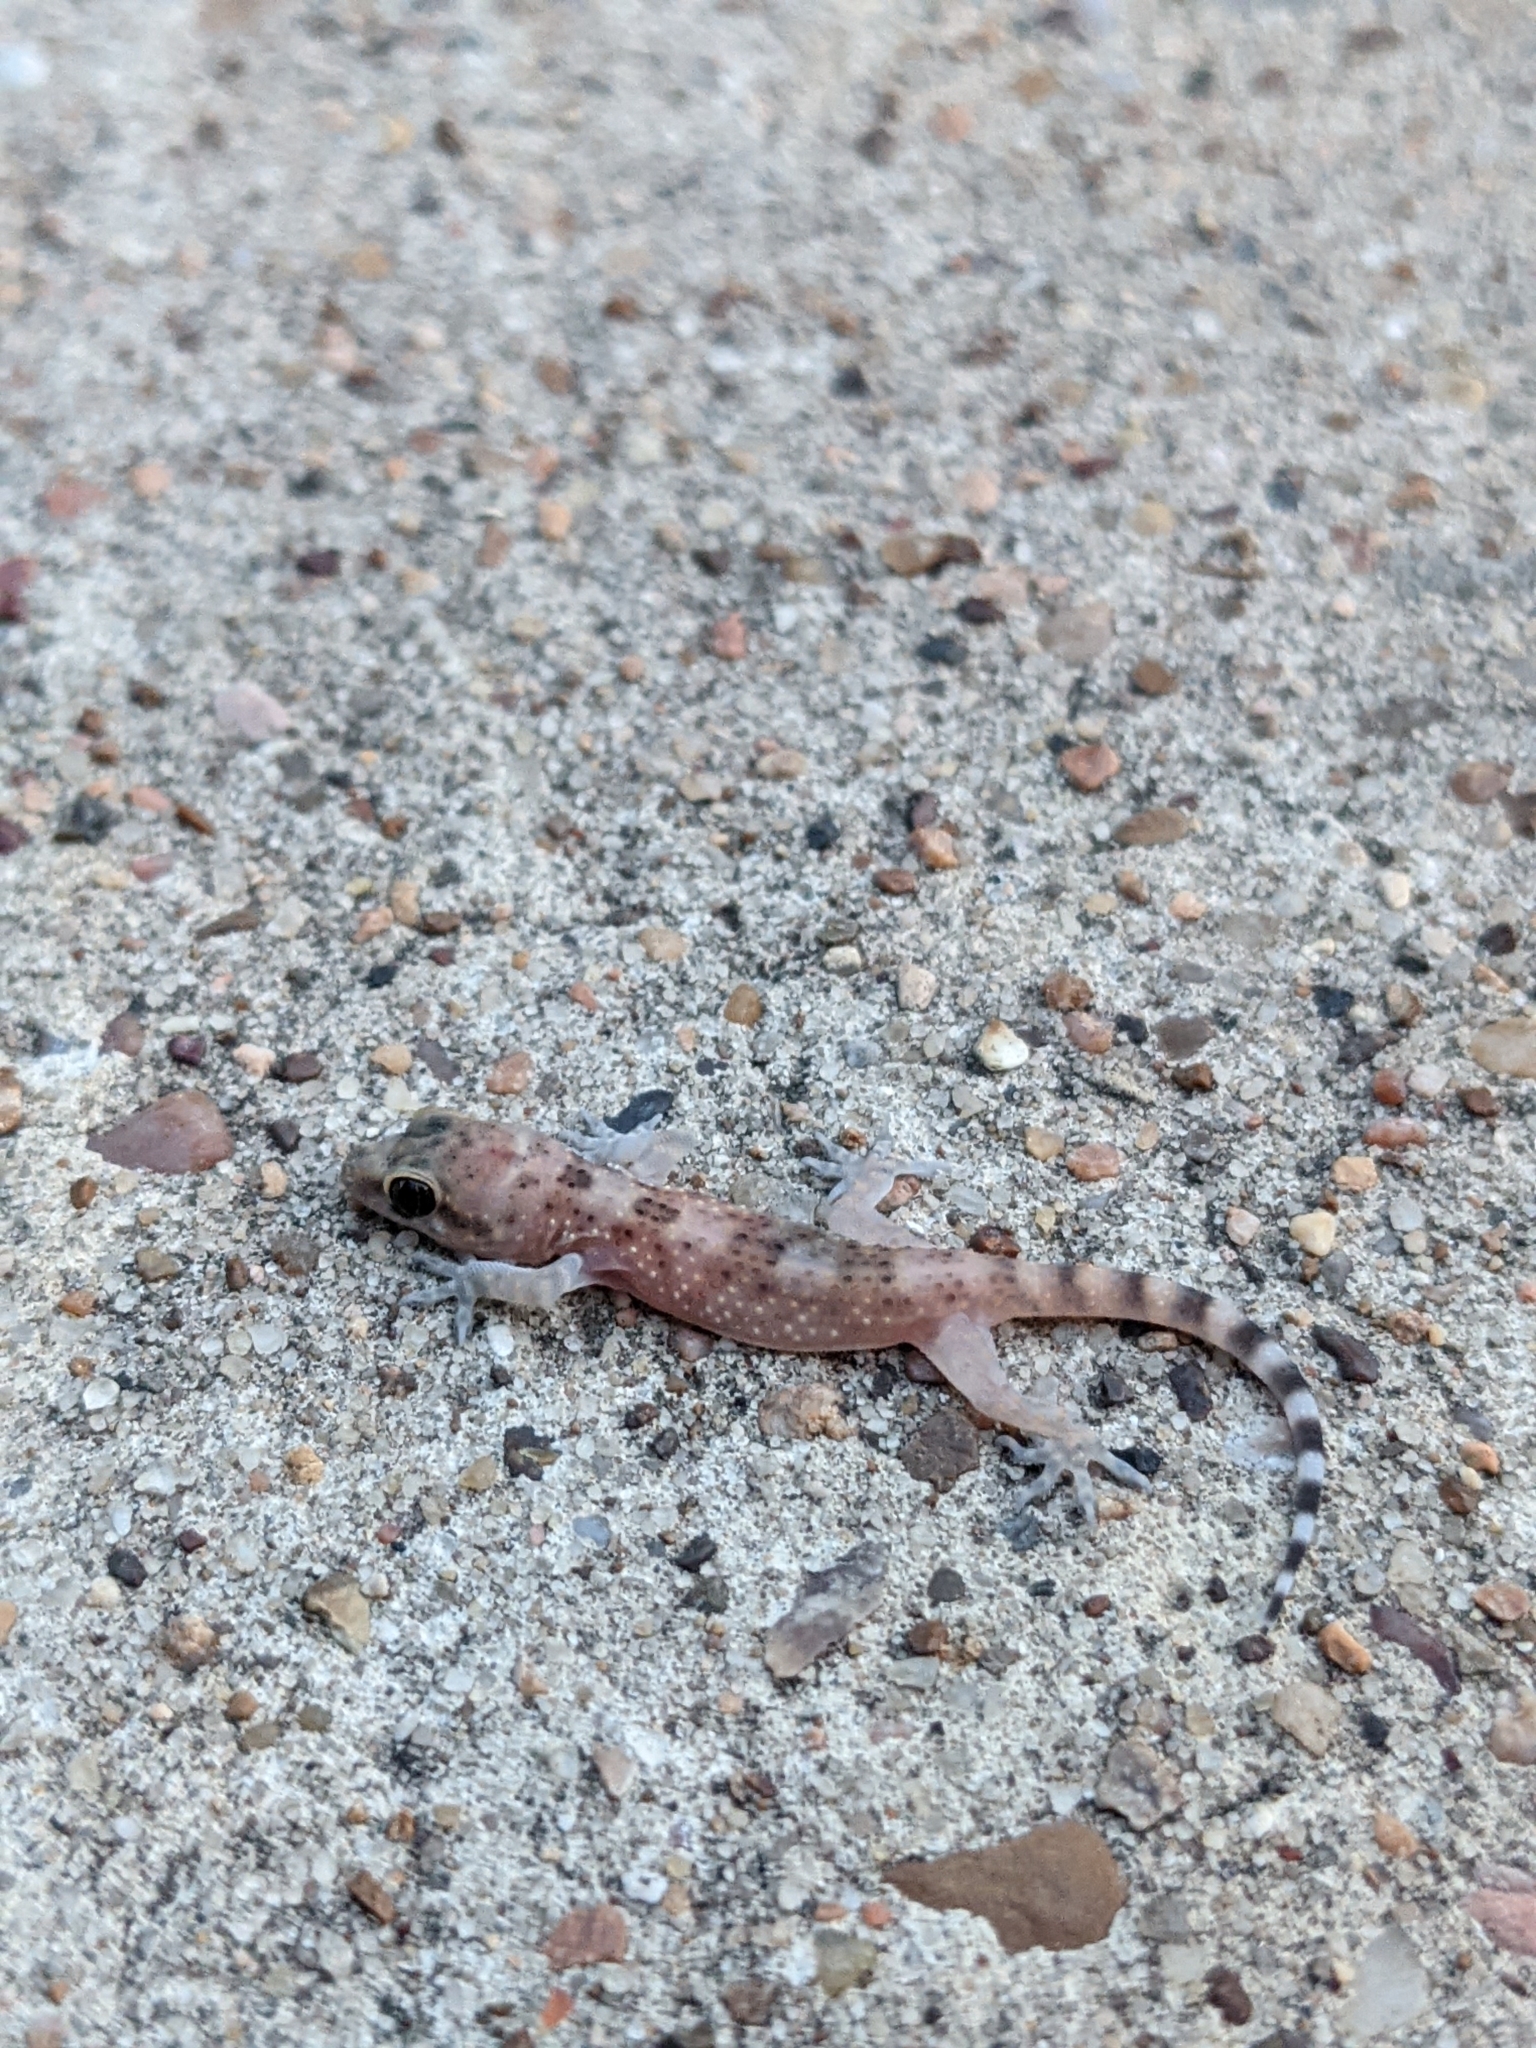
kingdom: Animalia
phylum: Chordata
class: Squamata
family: Gekkonidae
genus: Hemidactylus
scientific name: Hemidactylus turcicus
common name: Turkish gecko
